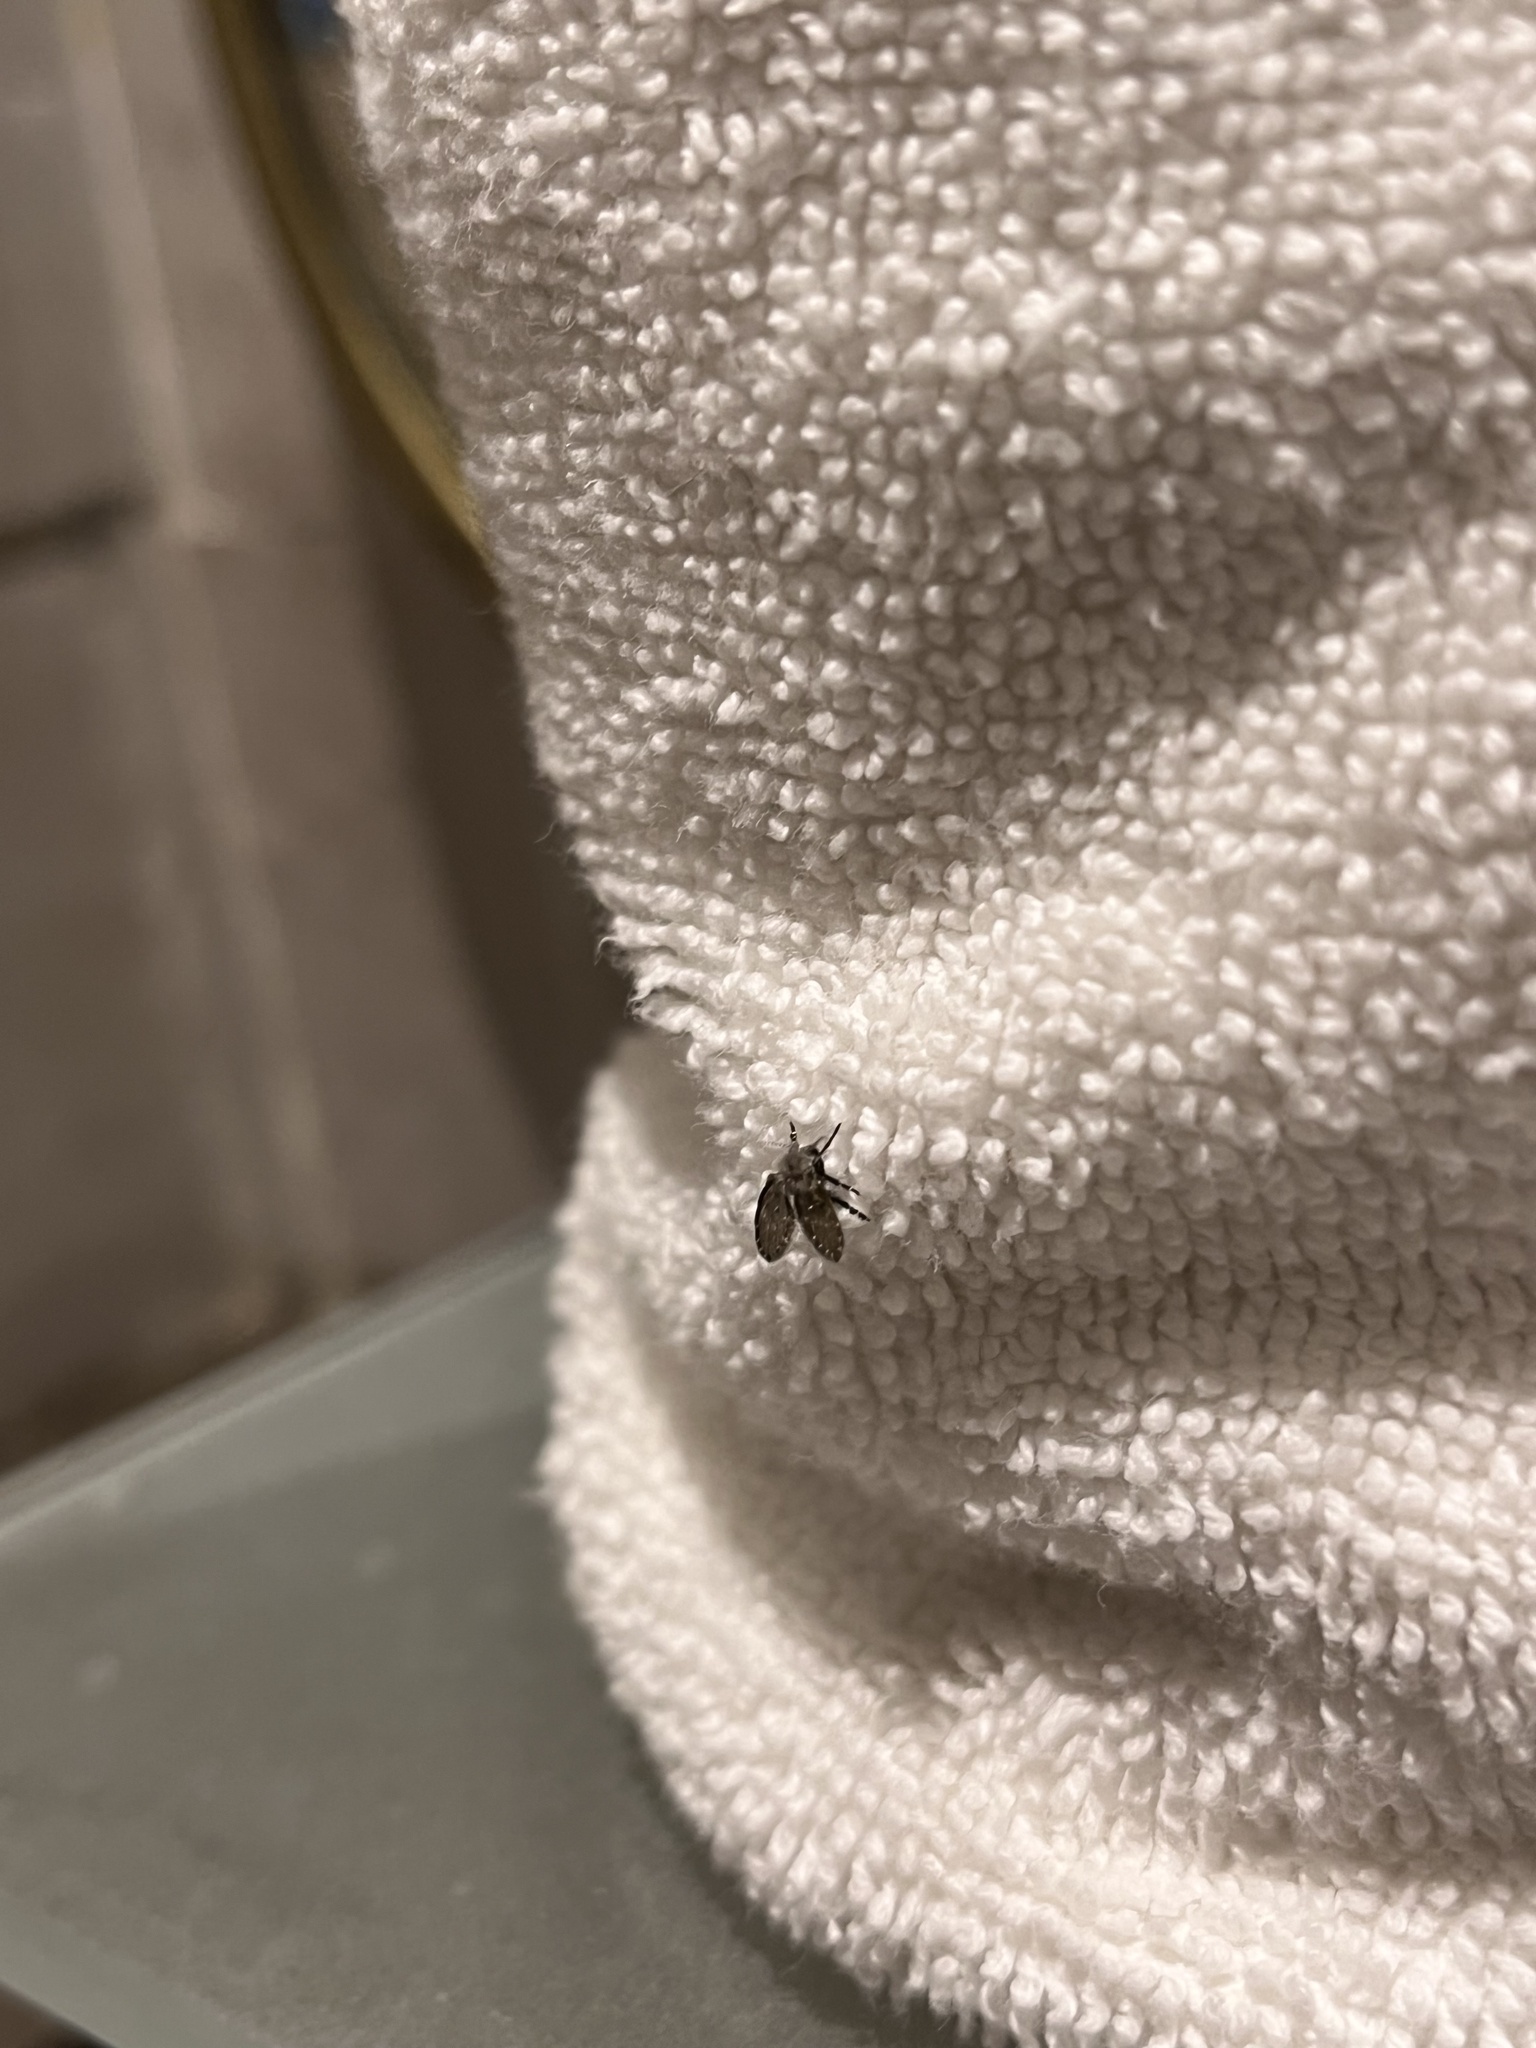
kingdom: Animalia
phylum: Arthropoda
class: Insecta
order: Diptera
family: Psychodidae
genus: Clogmia
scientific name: Clogmia albipunctatus
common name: White-spotted moth fly
